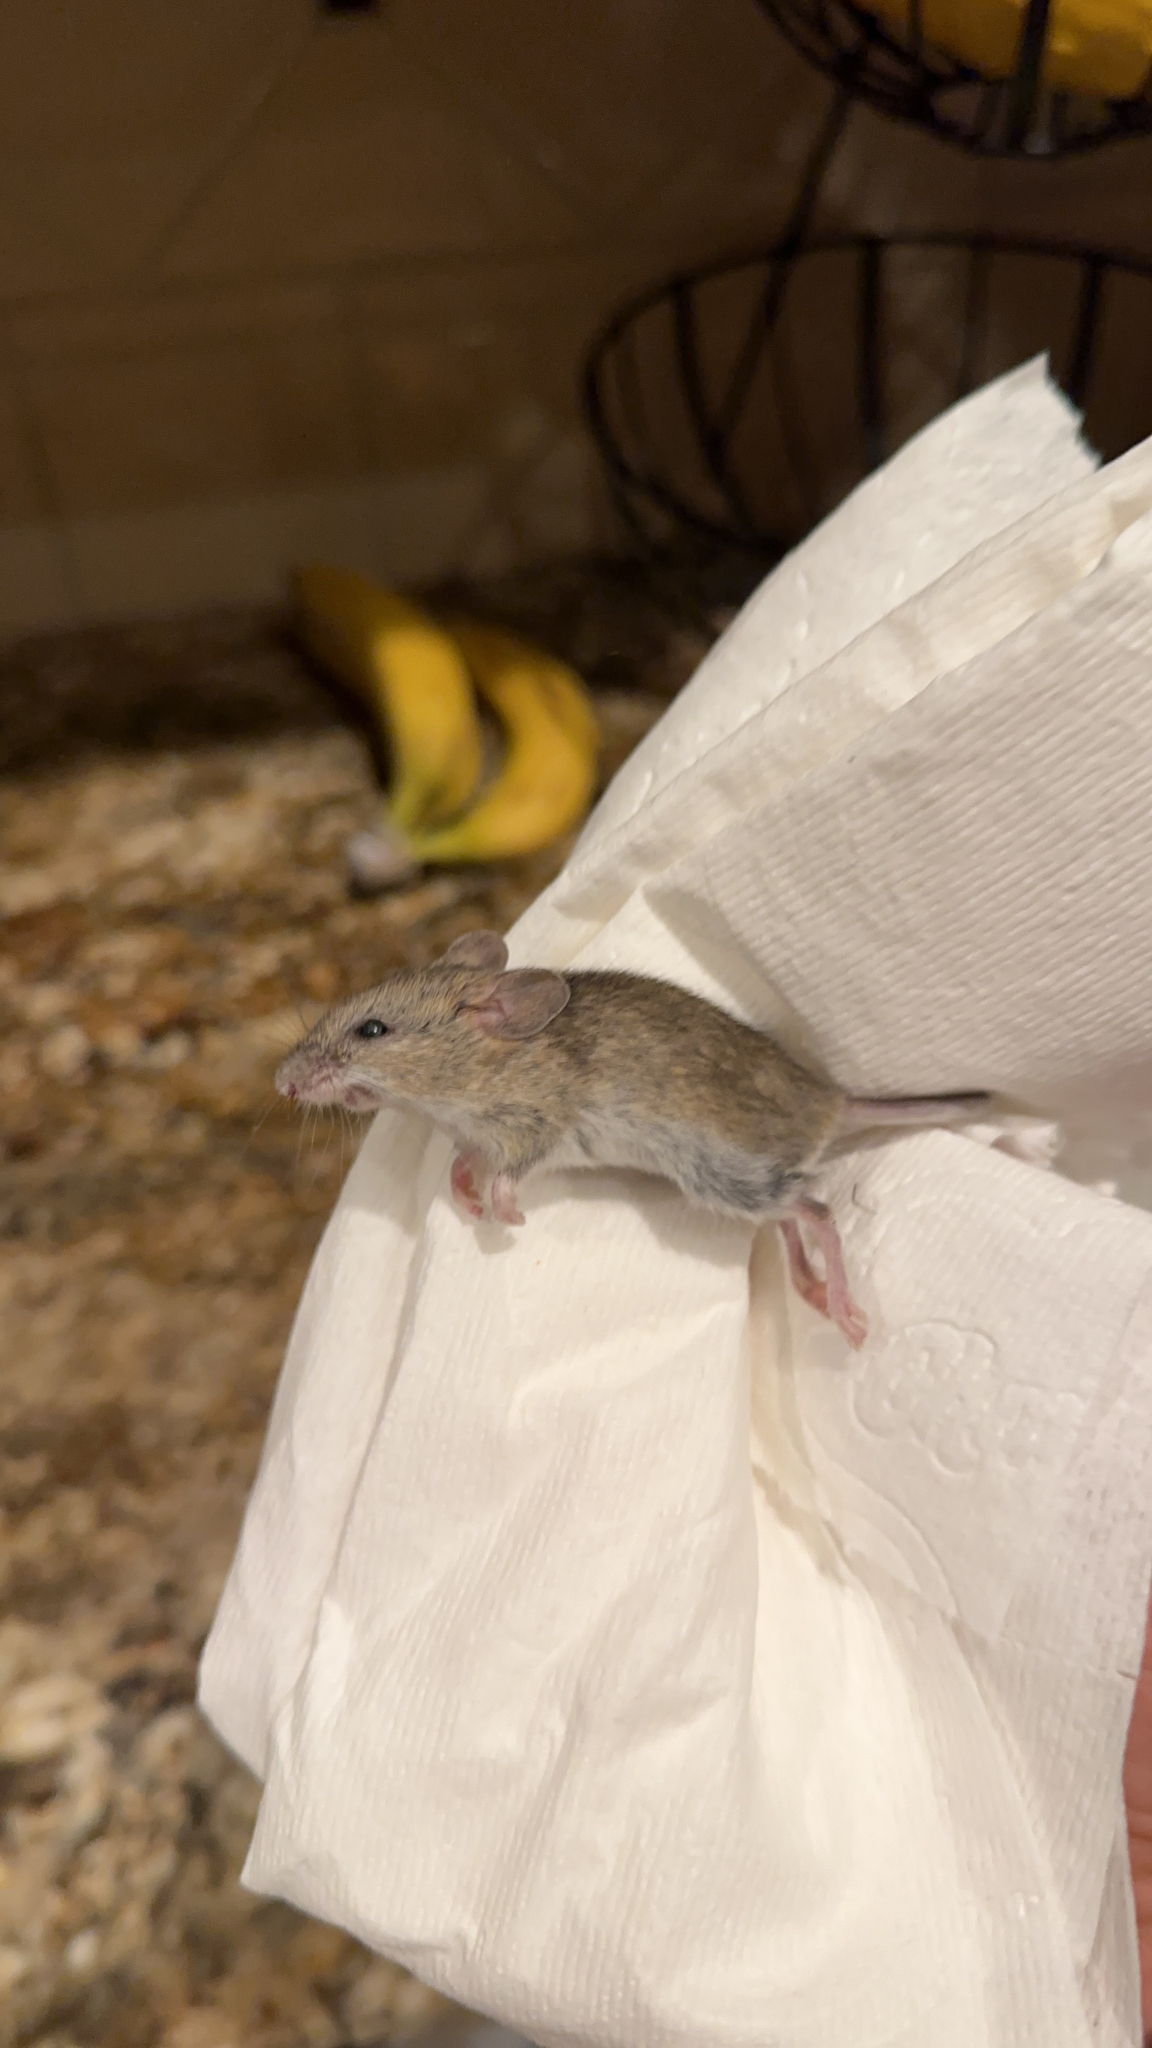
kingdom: Animalia
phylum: Chordata
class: Mammalia
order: Rodentia
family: Muridae
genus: Mus
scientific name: Mus musculus
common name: House mouse
